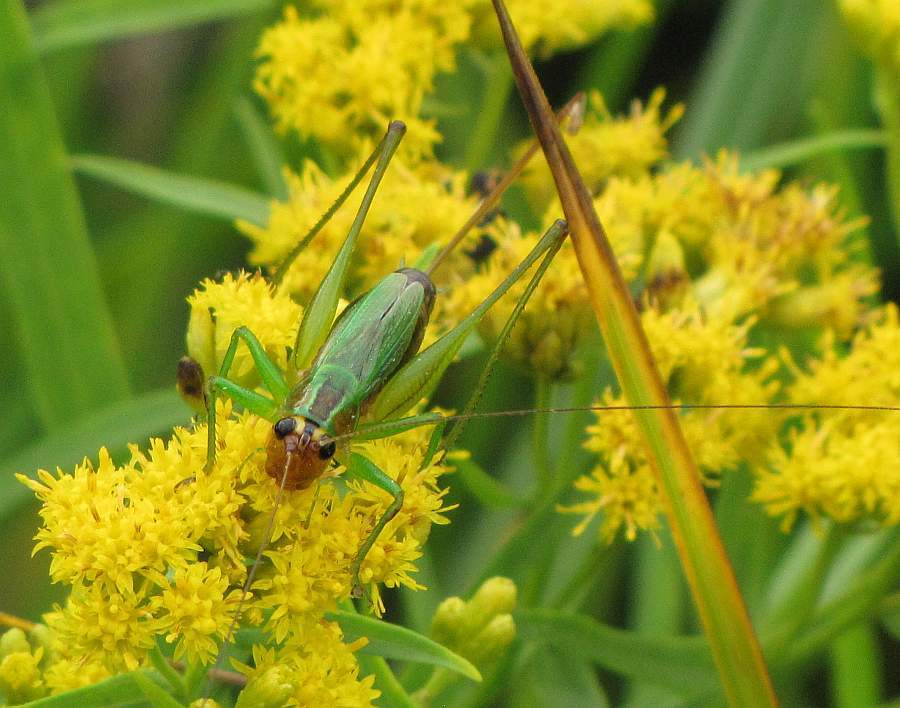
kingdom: Animalia
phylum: Arthropoda
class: Insecta
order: Orthoptera
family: Tettigoniidae
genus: Conocephalus
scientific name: Conocephalus nigropleurum
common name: Black-sided meadow katydid
